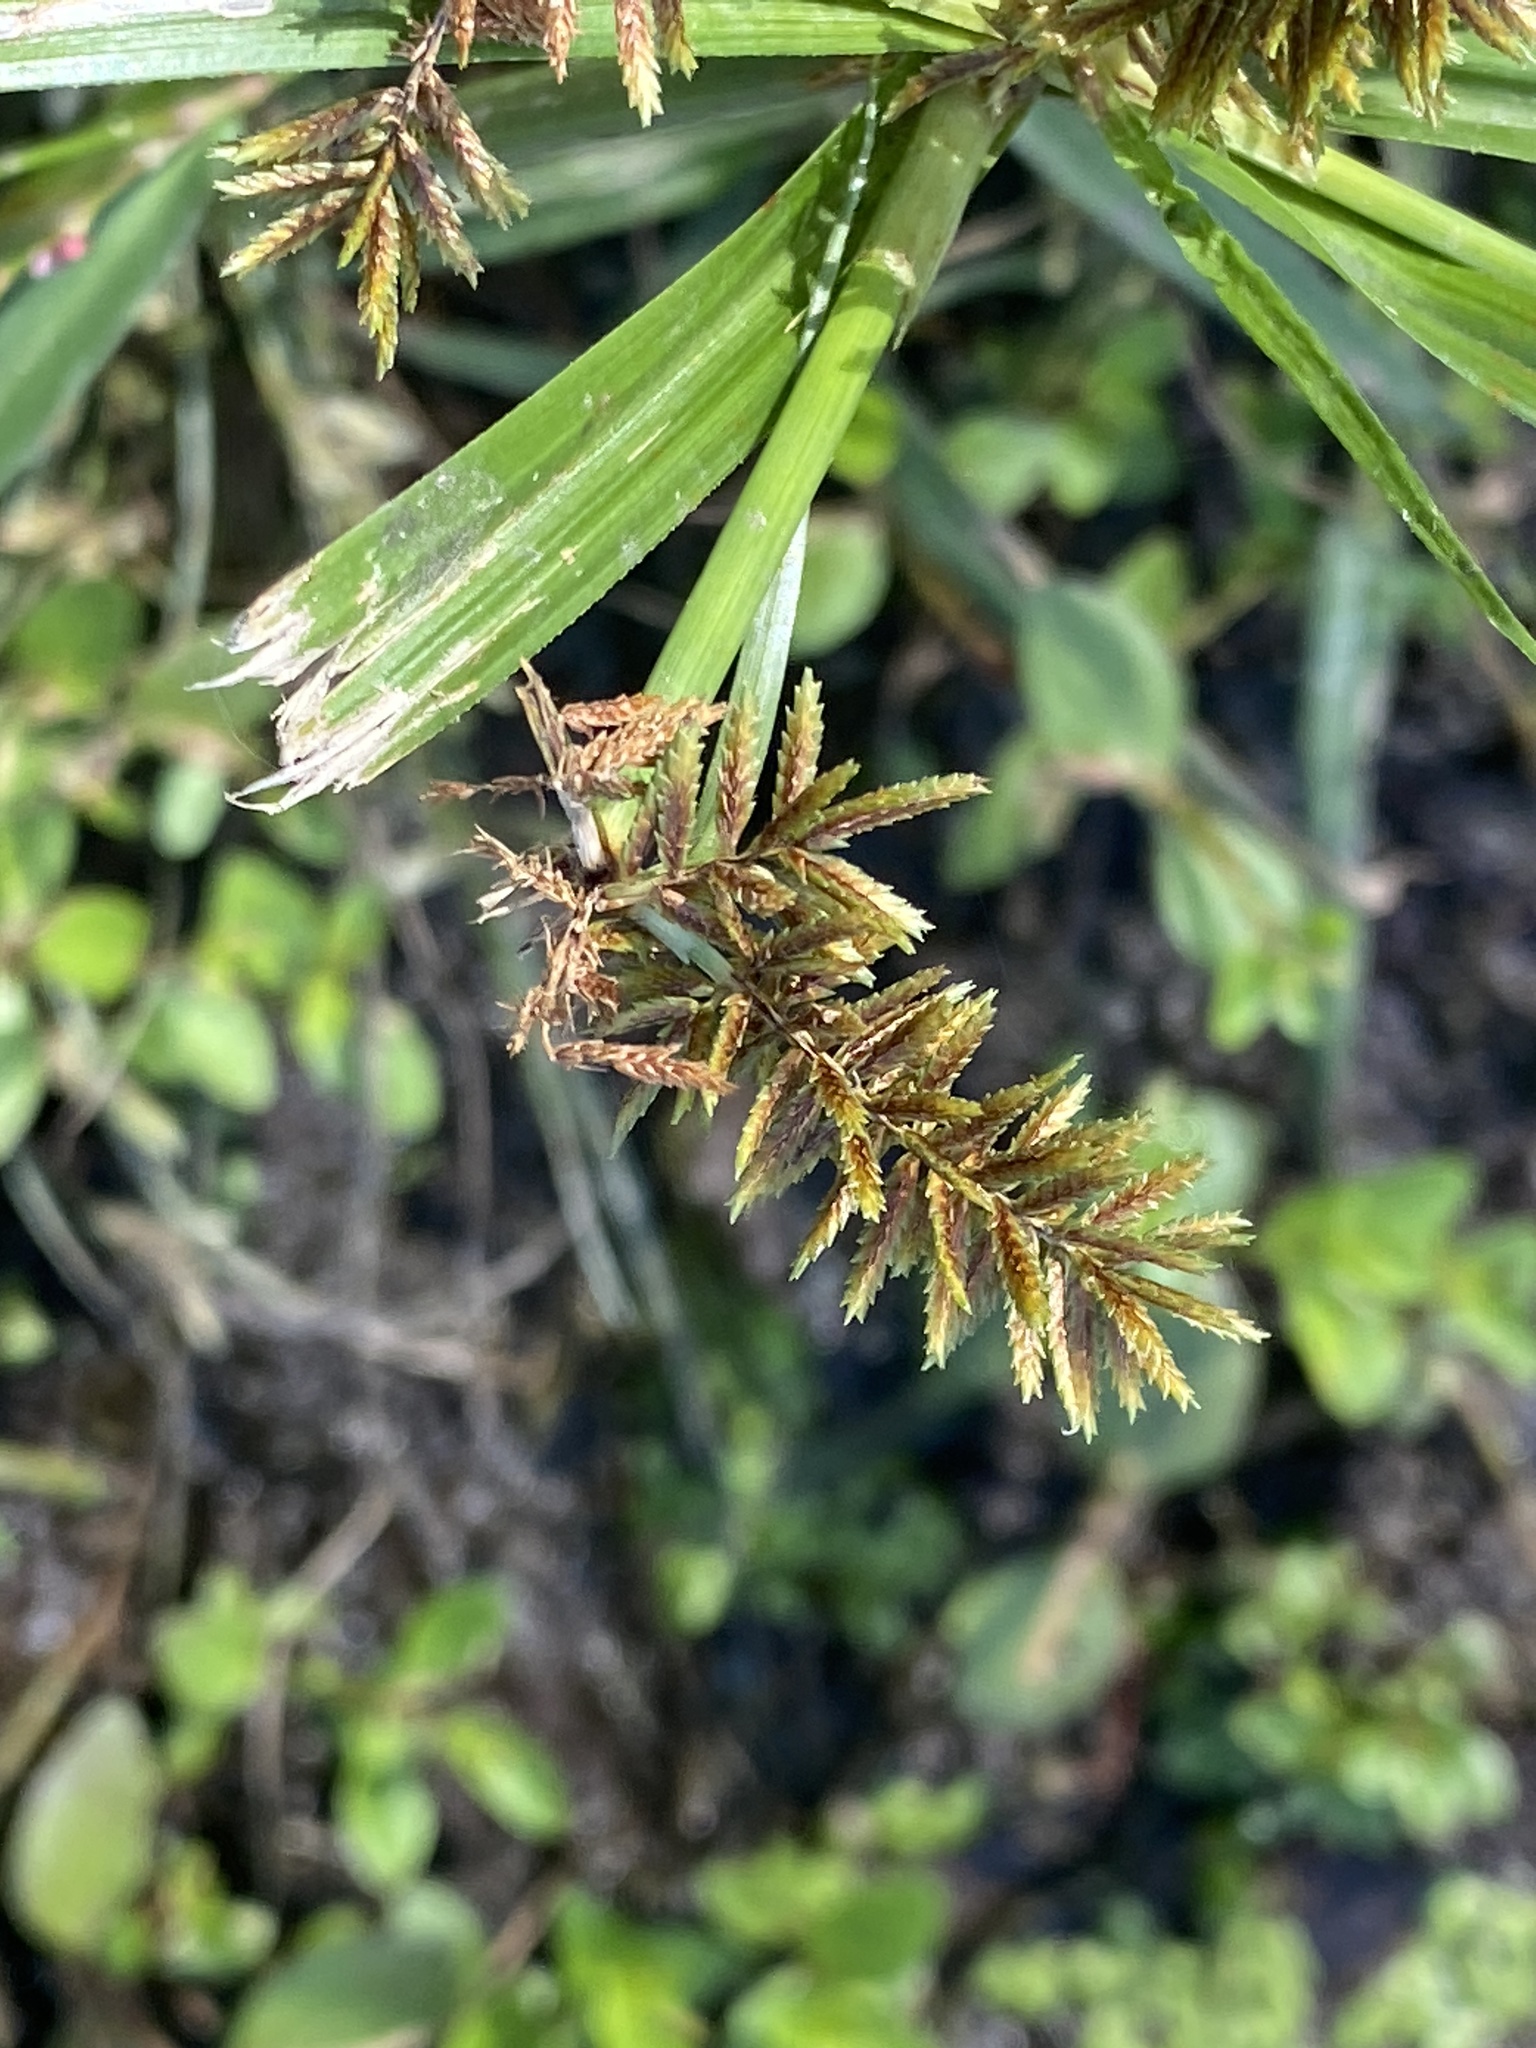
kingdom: Plantae
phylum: Tracheophyta
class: Liliopsida
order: Poales
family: Cyperaceae
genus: Cyperus
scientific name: Cyperus erythrorhizos
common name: Red-root flat sedge
